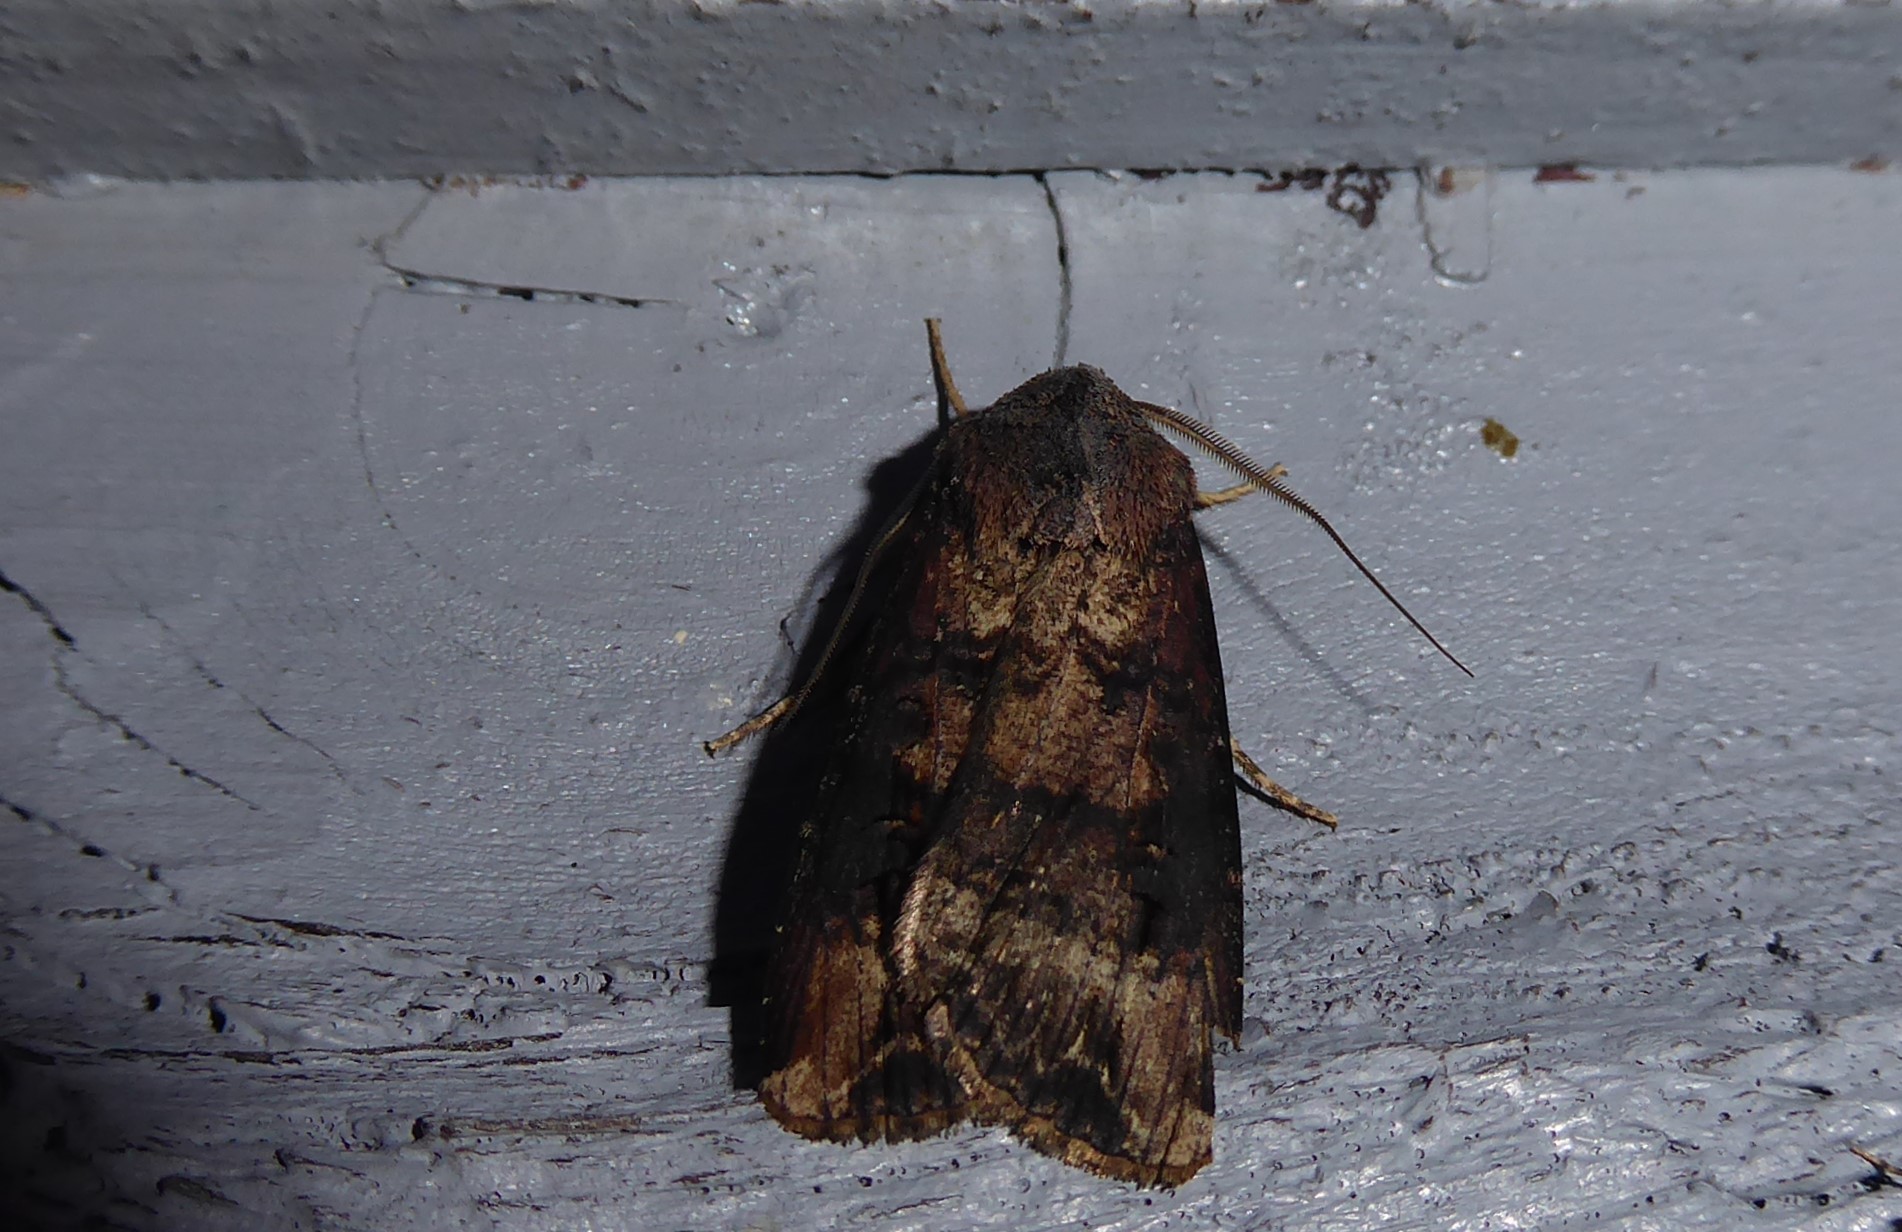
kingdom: Animalia
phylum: Arthropoda
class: Insecta
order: Lepidoptera
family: Noctuidae
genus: Agrotis
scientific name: Agrotis ipsilon
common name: Dark sword-grass
